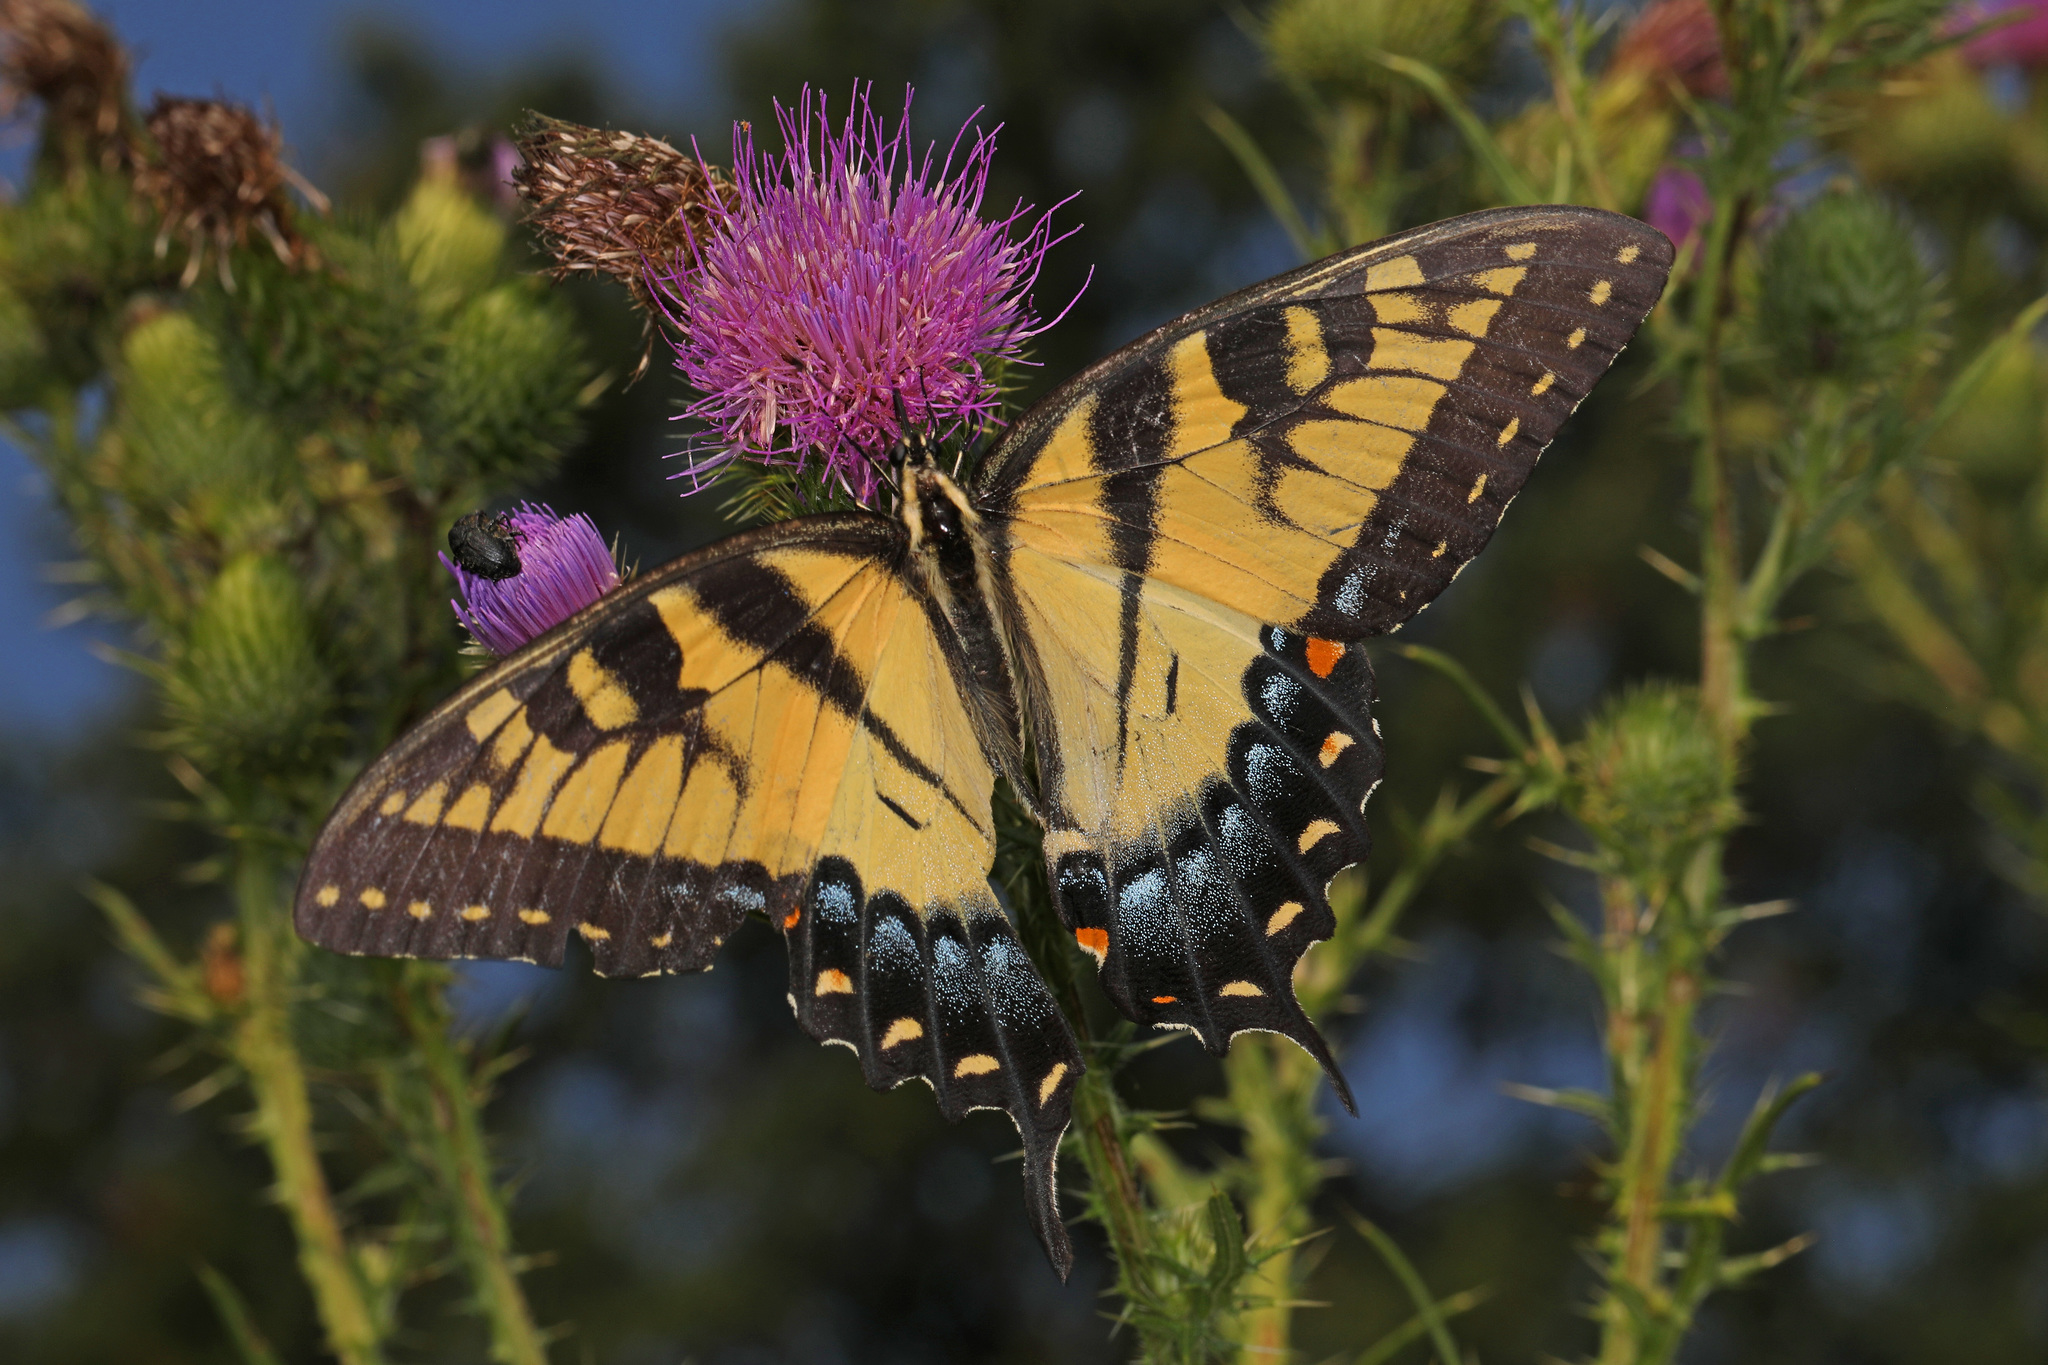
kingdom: Animalia
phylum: Arthropoda
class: Insecta
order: Lepidoptera
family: Papilionidae
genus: Papilio
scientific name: Papilio glaucus
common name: Tiger swallowtail
